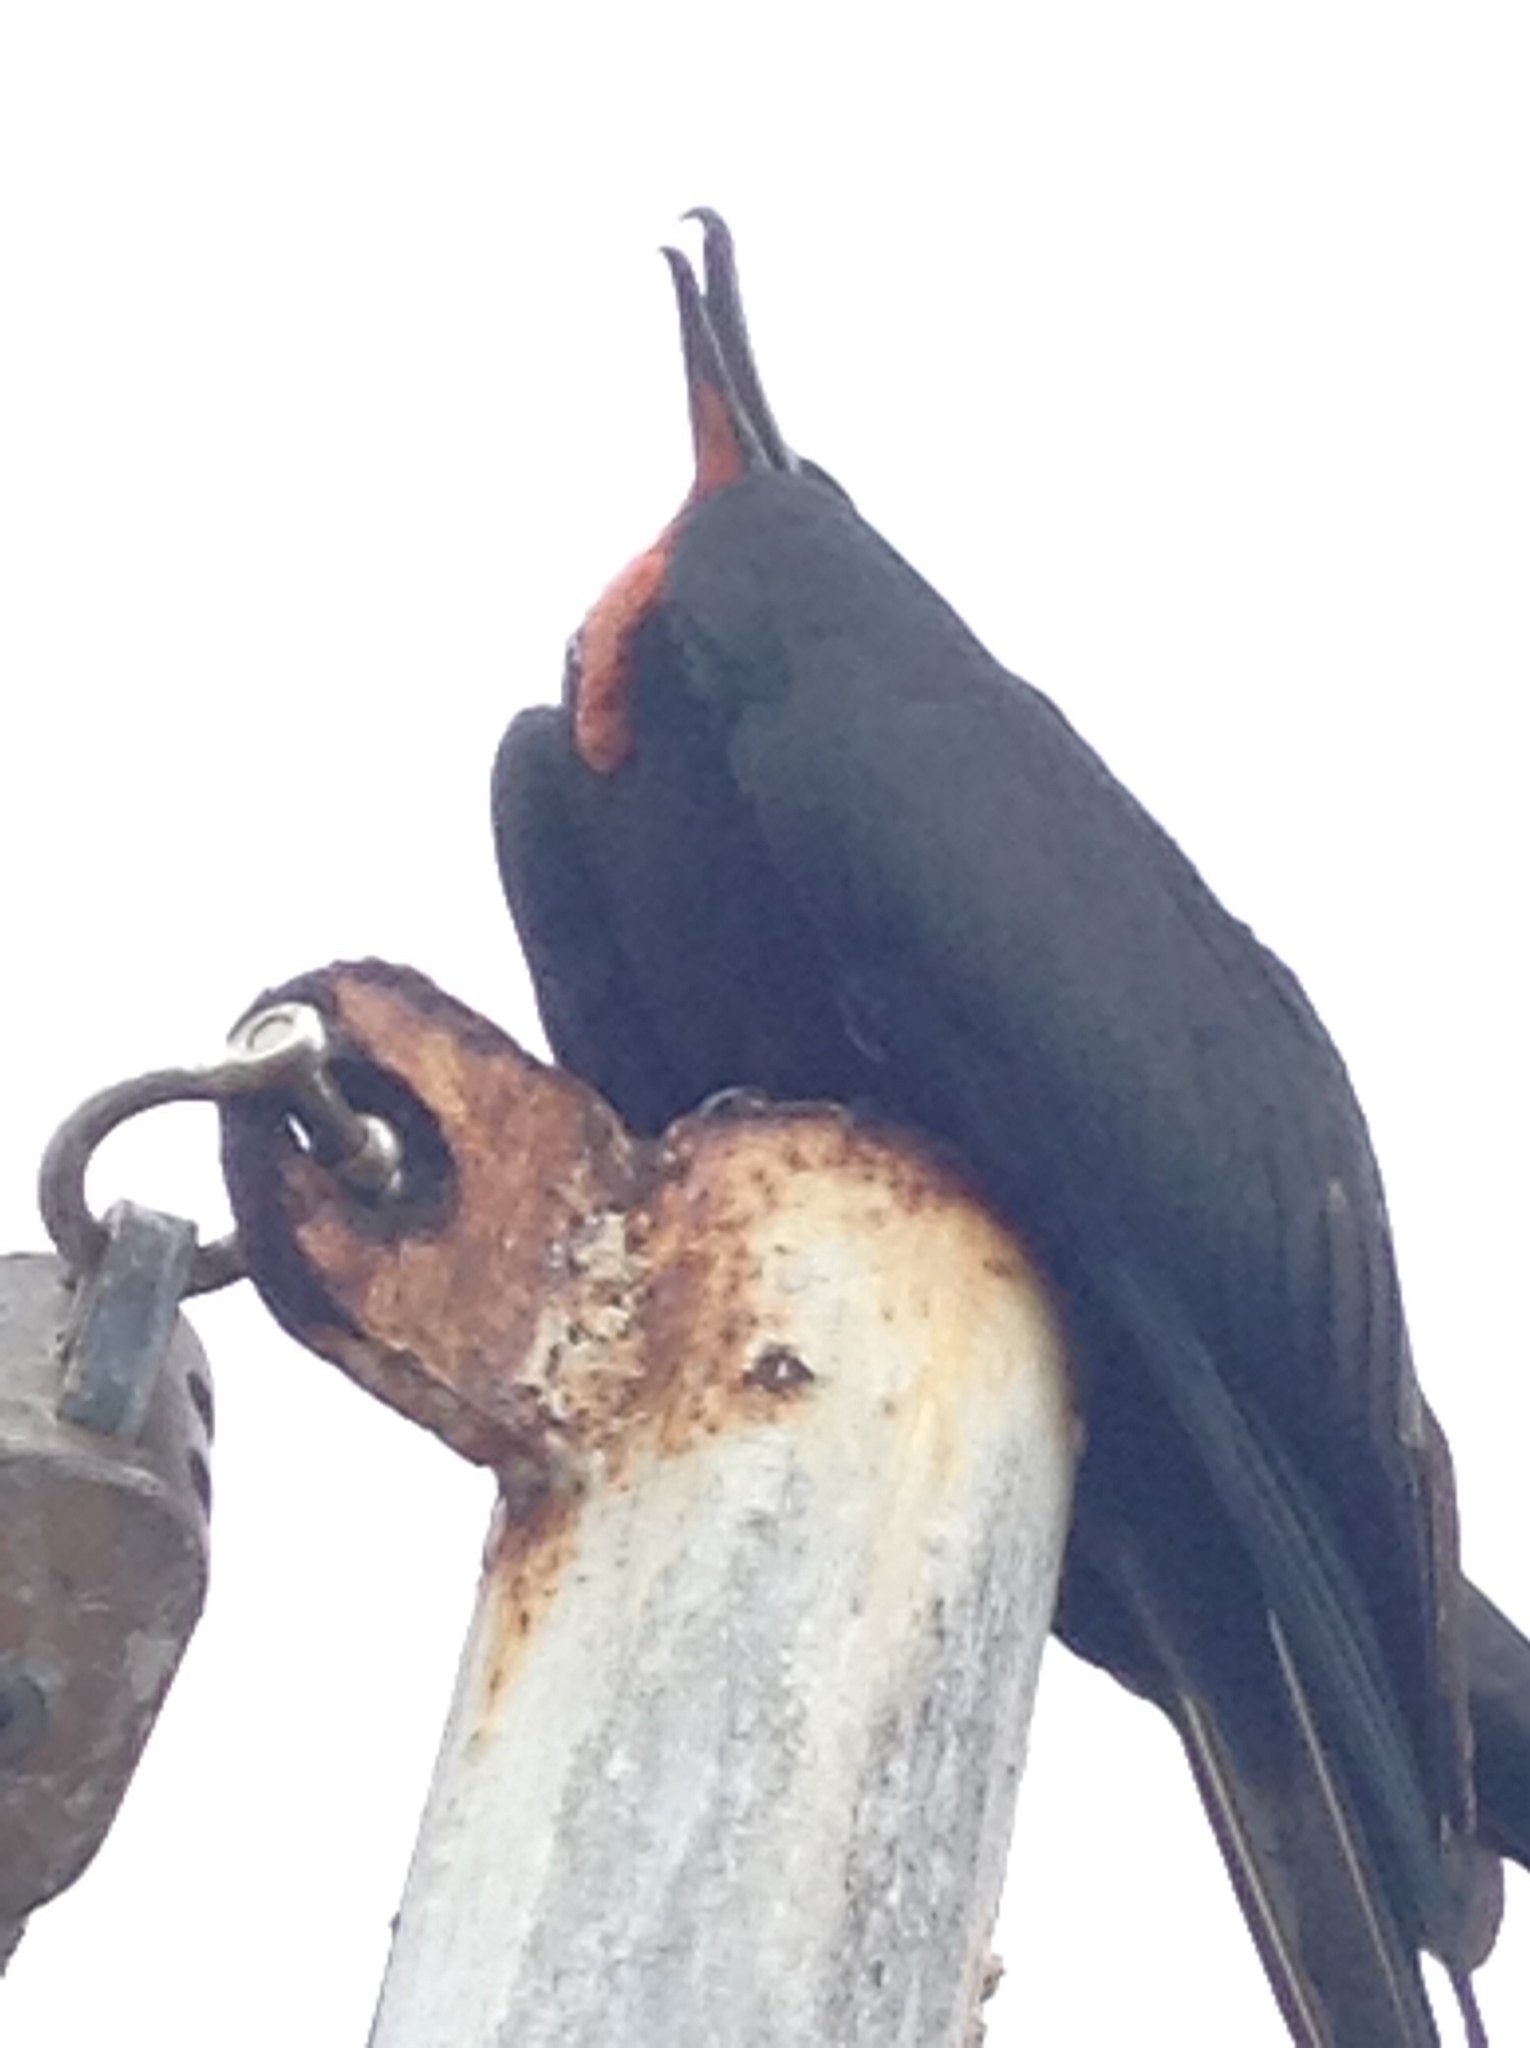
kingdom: Animalia
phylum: Chordata
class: Aves
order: Suliformes
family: Fregatidae
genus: Fregata
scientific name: Fregata minor
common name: Great frigatebird
